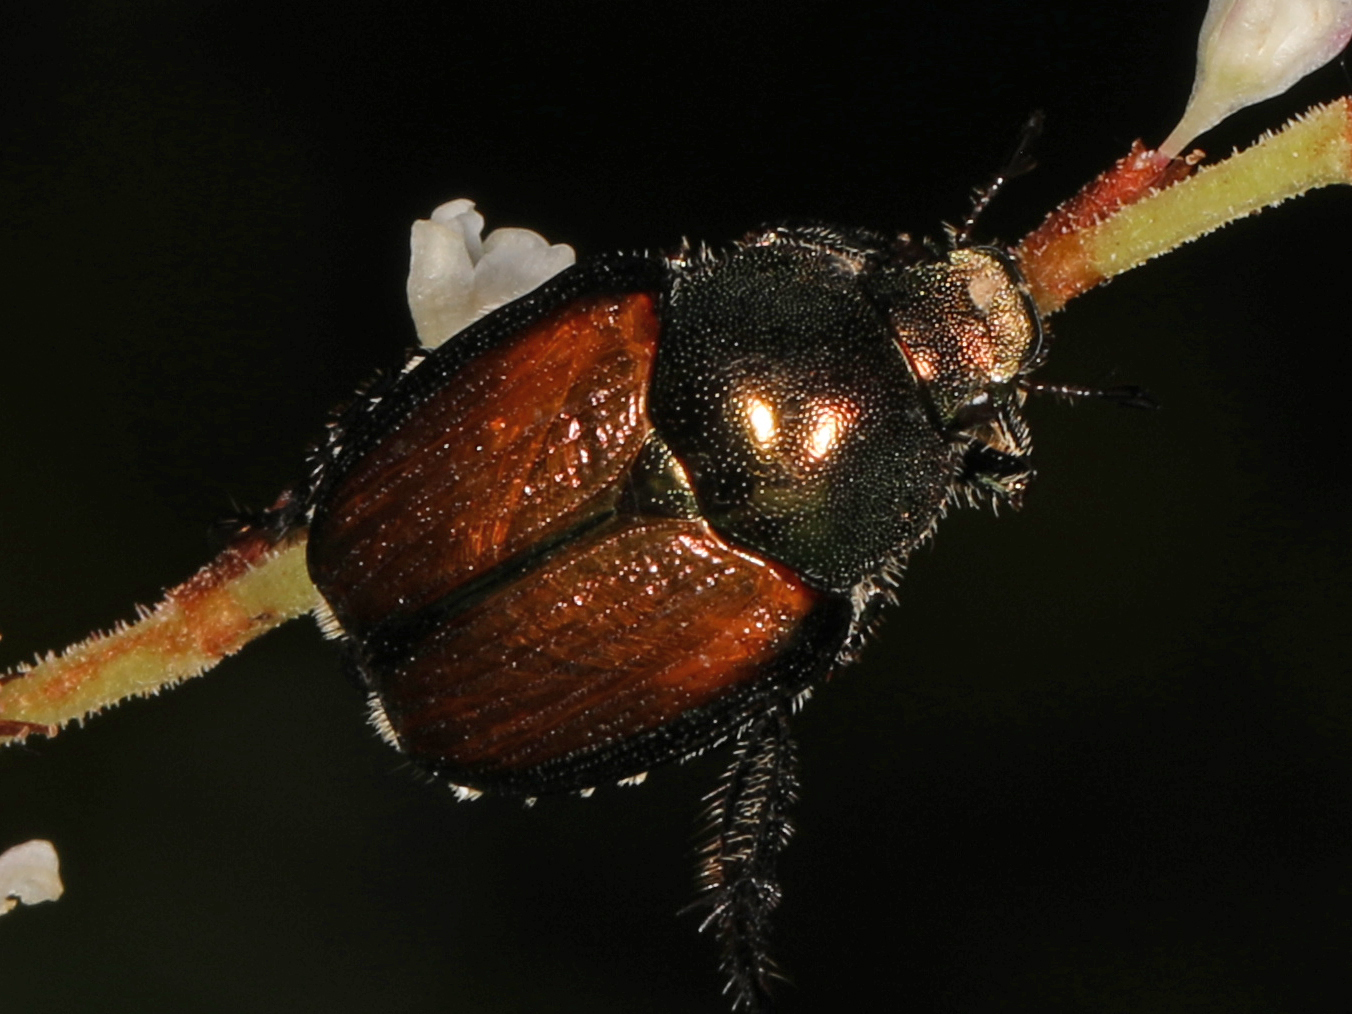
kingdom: Animalia
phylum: Arthropoda
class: Insecta
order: Coleoptera
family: Scarabaeidae
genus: Popillia
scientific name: Popillia japonica
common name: Japanese beetle
